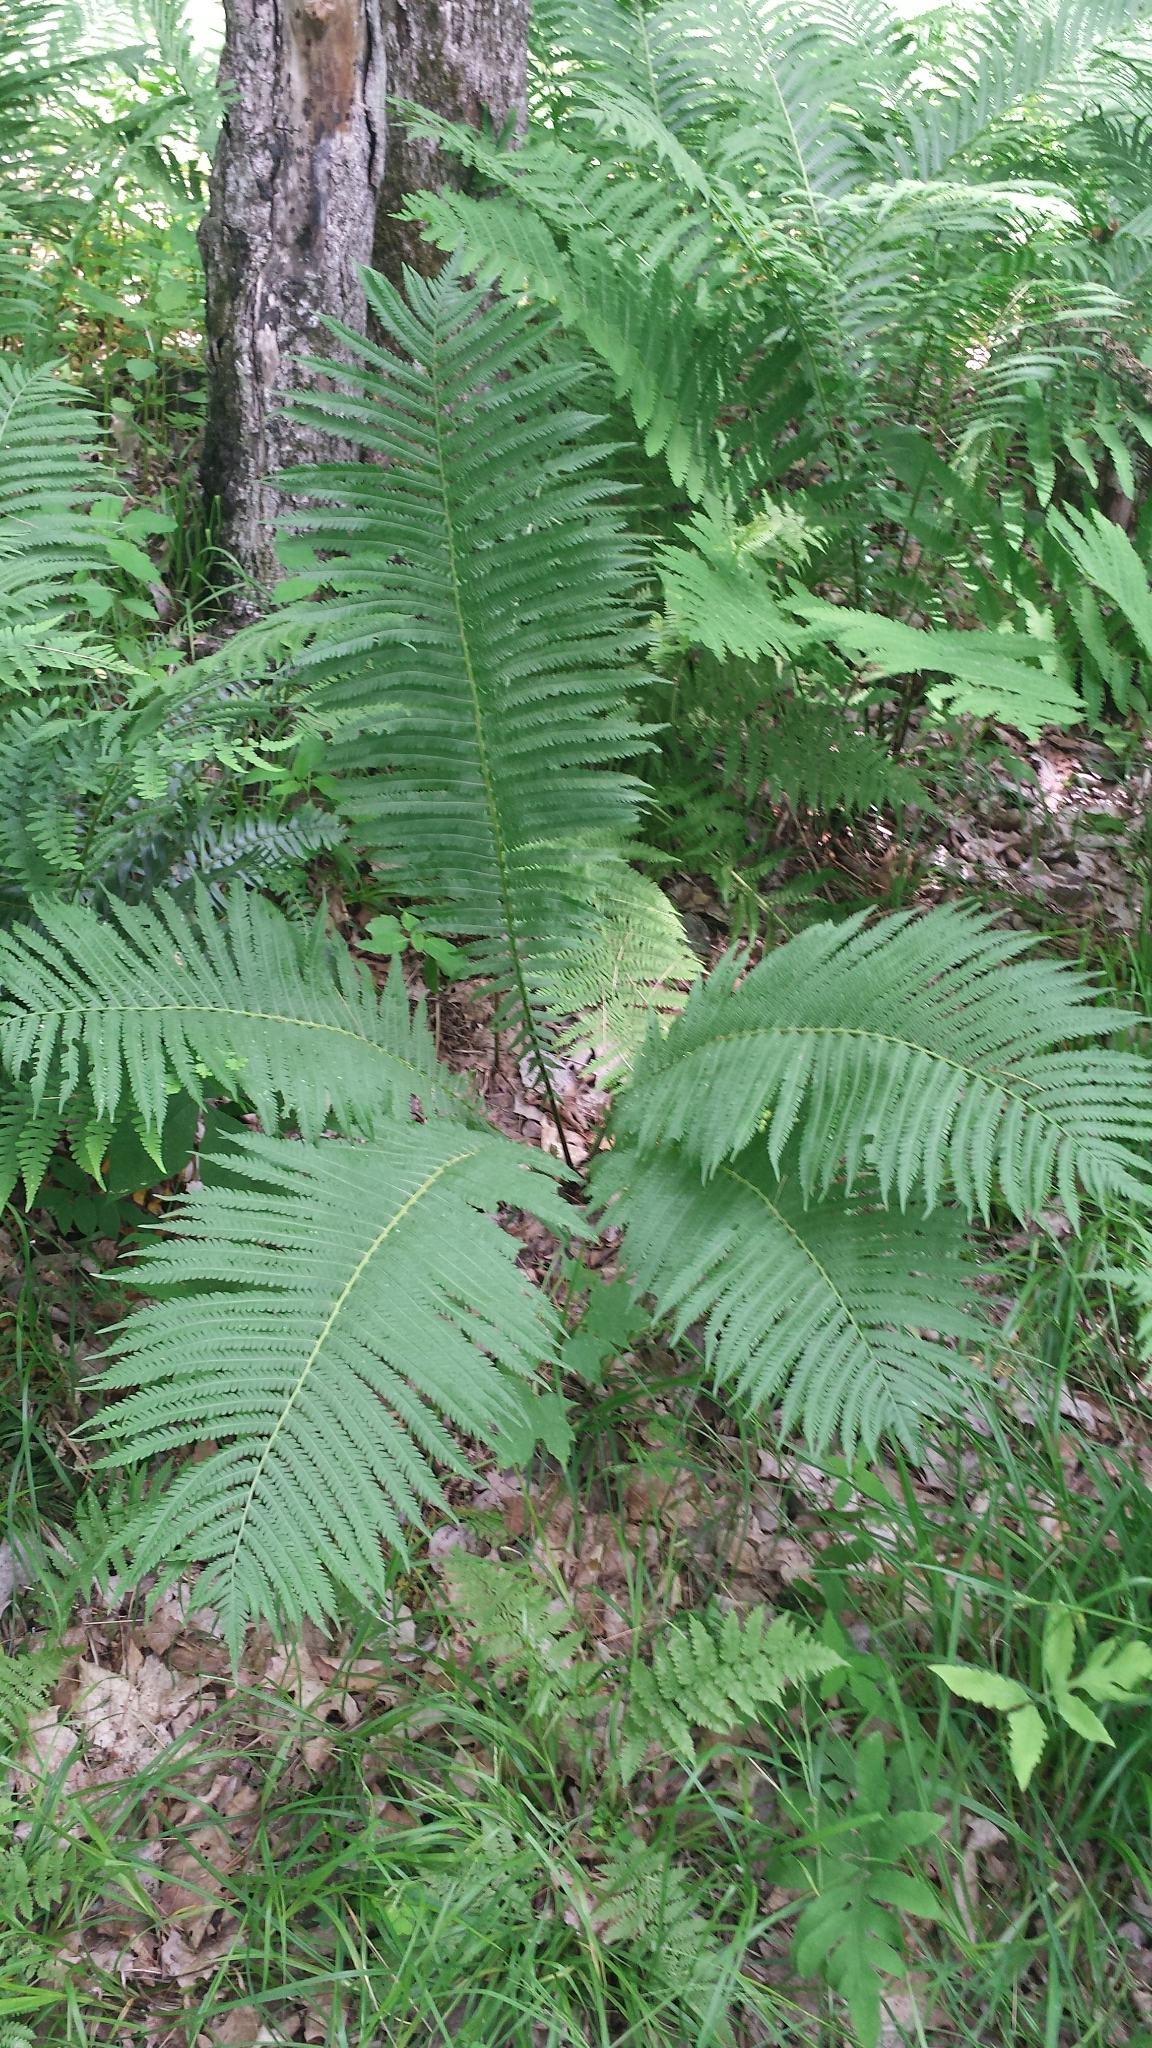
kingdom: Plantae
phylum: Tracheophyta
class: Polypodiopsida
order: Polypodiales
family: Onocleaceae
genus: Matteuccia
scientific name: Matteuccia struthiopteris
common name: Ostrich fern
